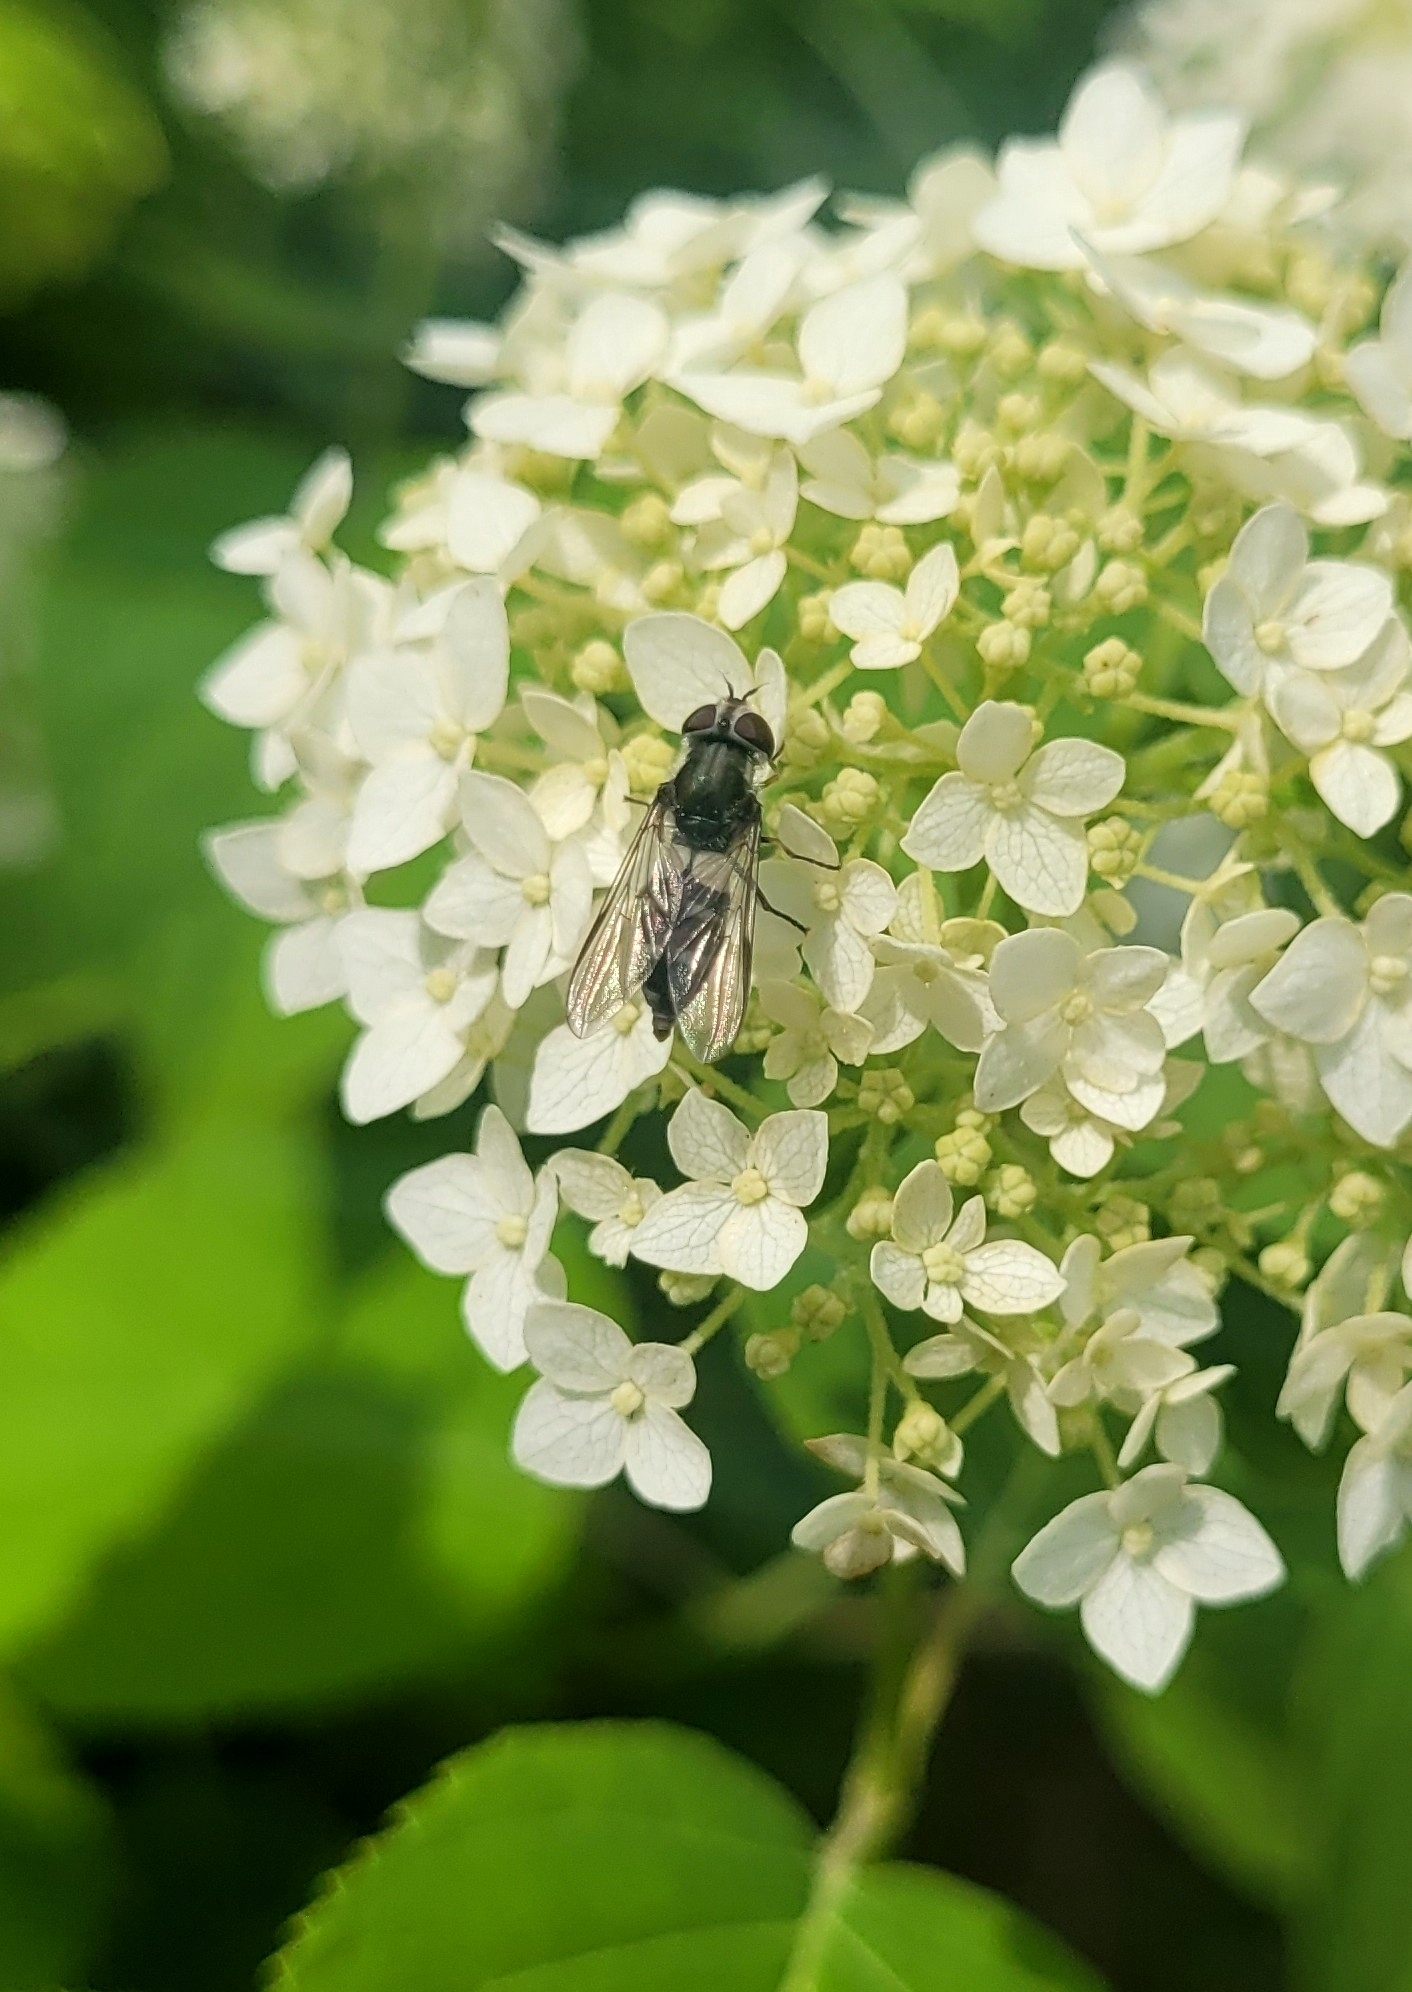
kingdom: Animalia
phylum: Arthropoda
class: Insecta
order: Diptera
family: Syrphidae
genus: Leucozona
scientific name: Leucozona laternaria
